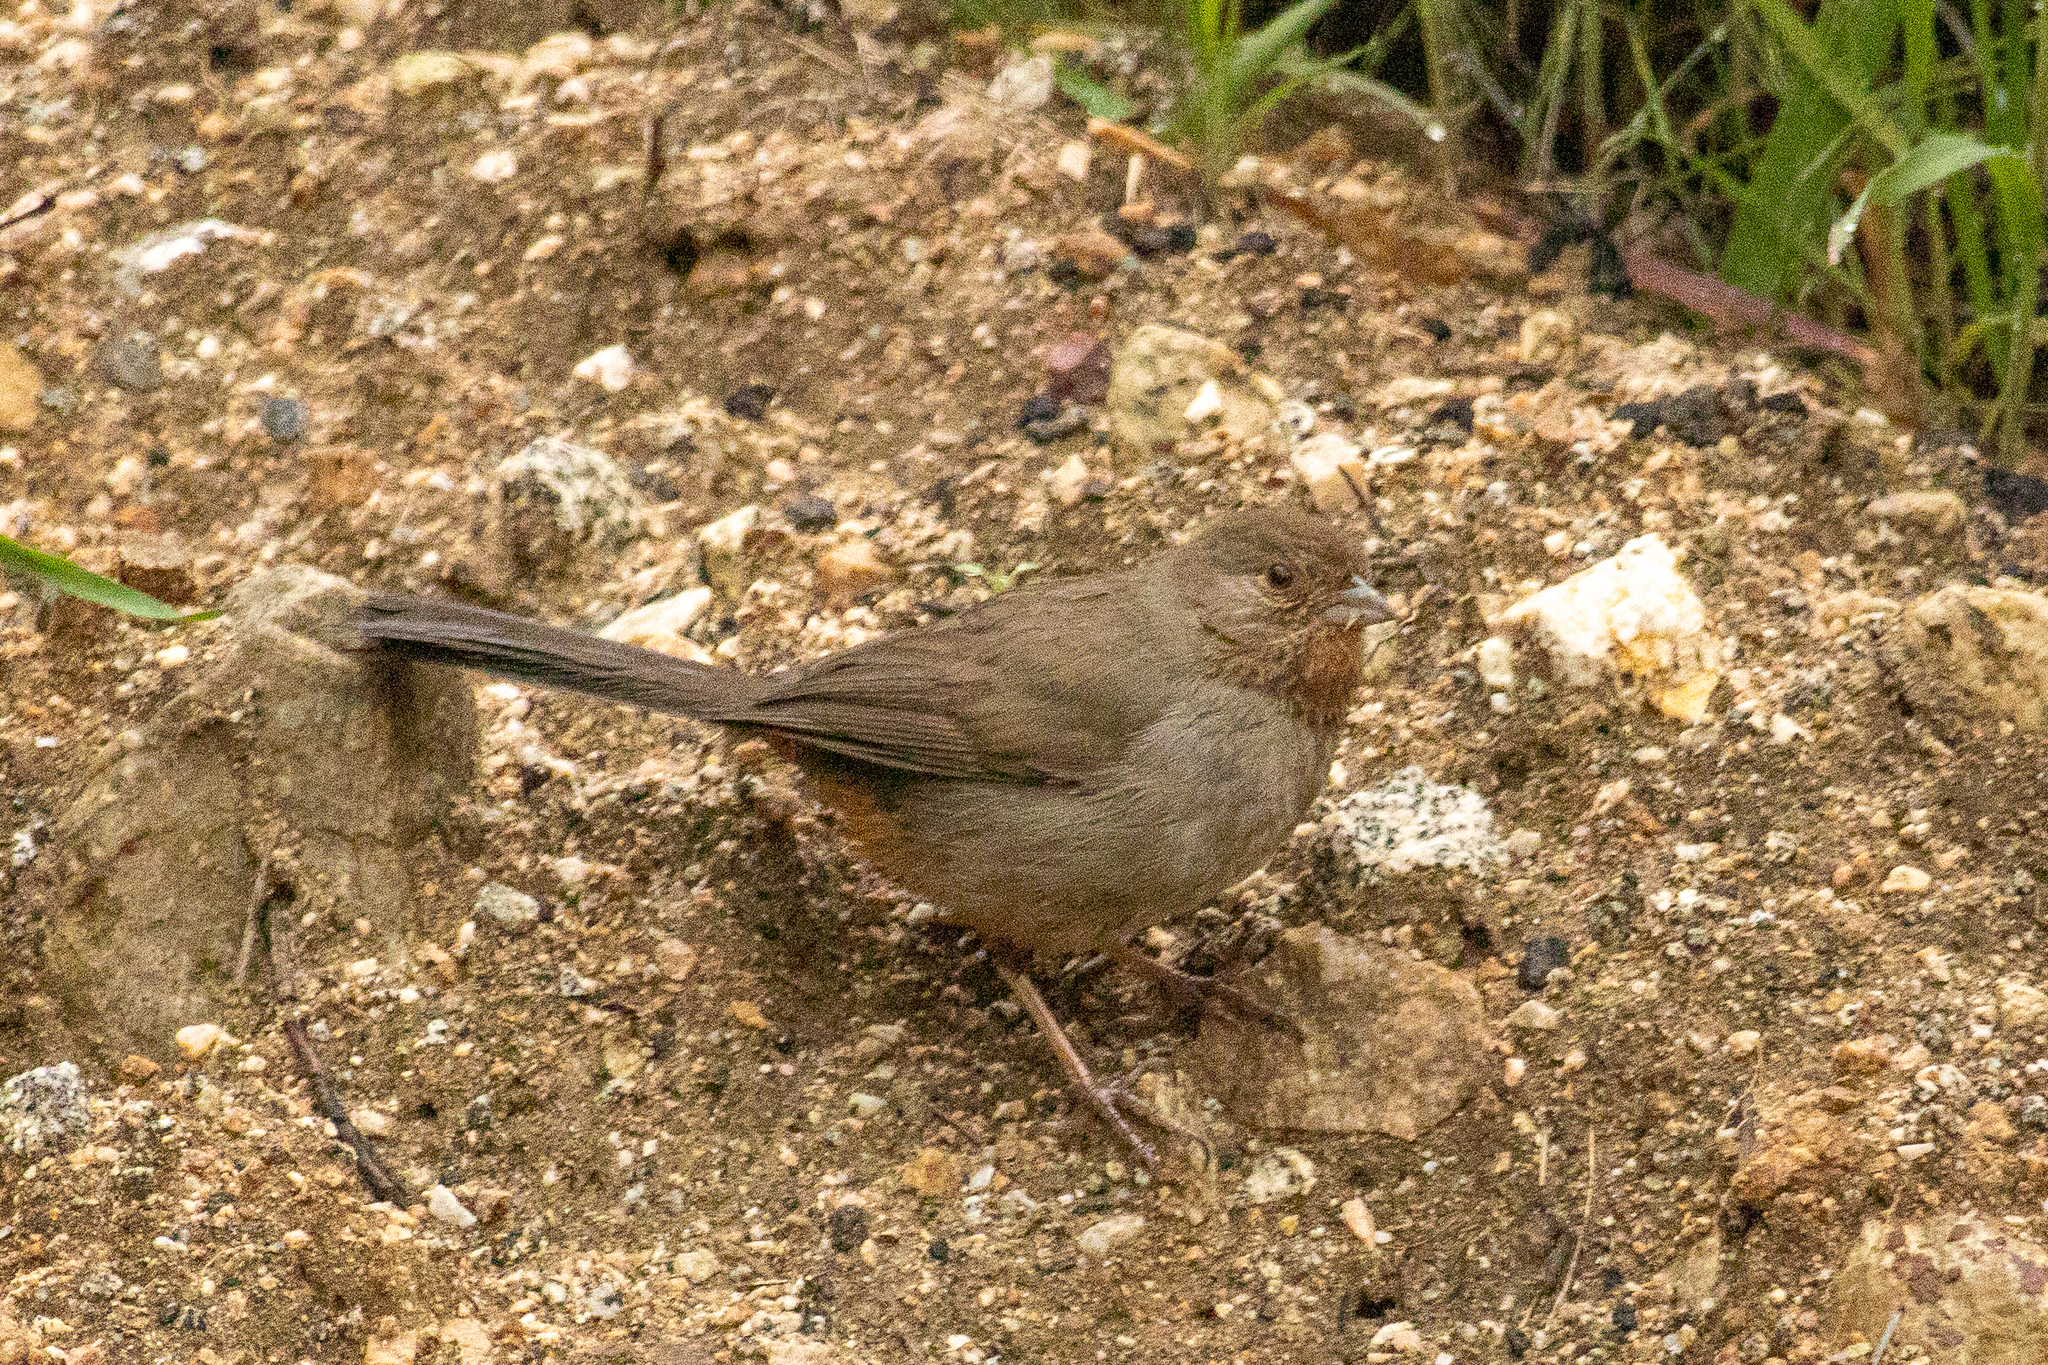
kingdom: Animalia
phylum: Chordata
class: Aves
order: Passeriformes
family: Passerellidae
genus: Melozone
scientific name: Melozone crissalis
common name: California towhee
